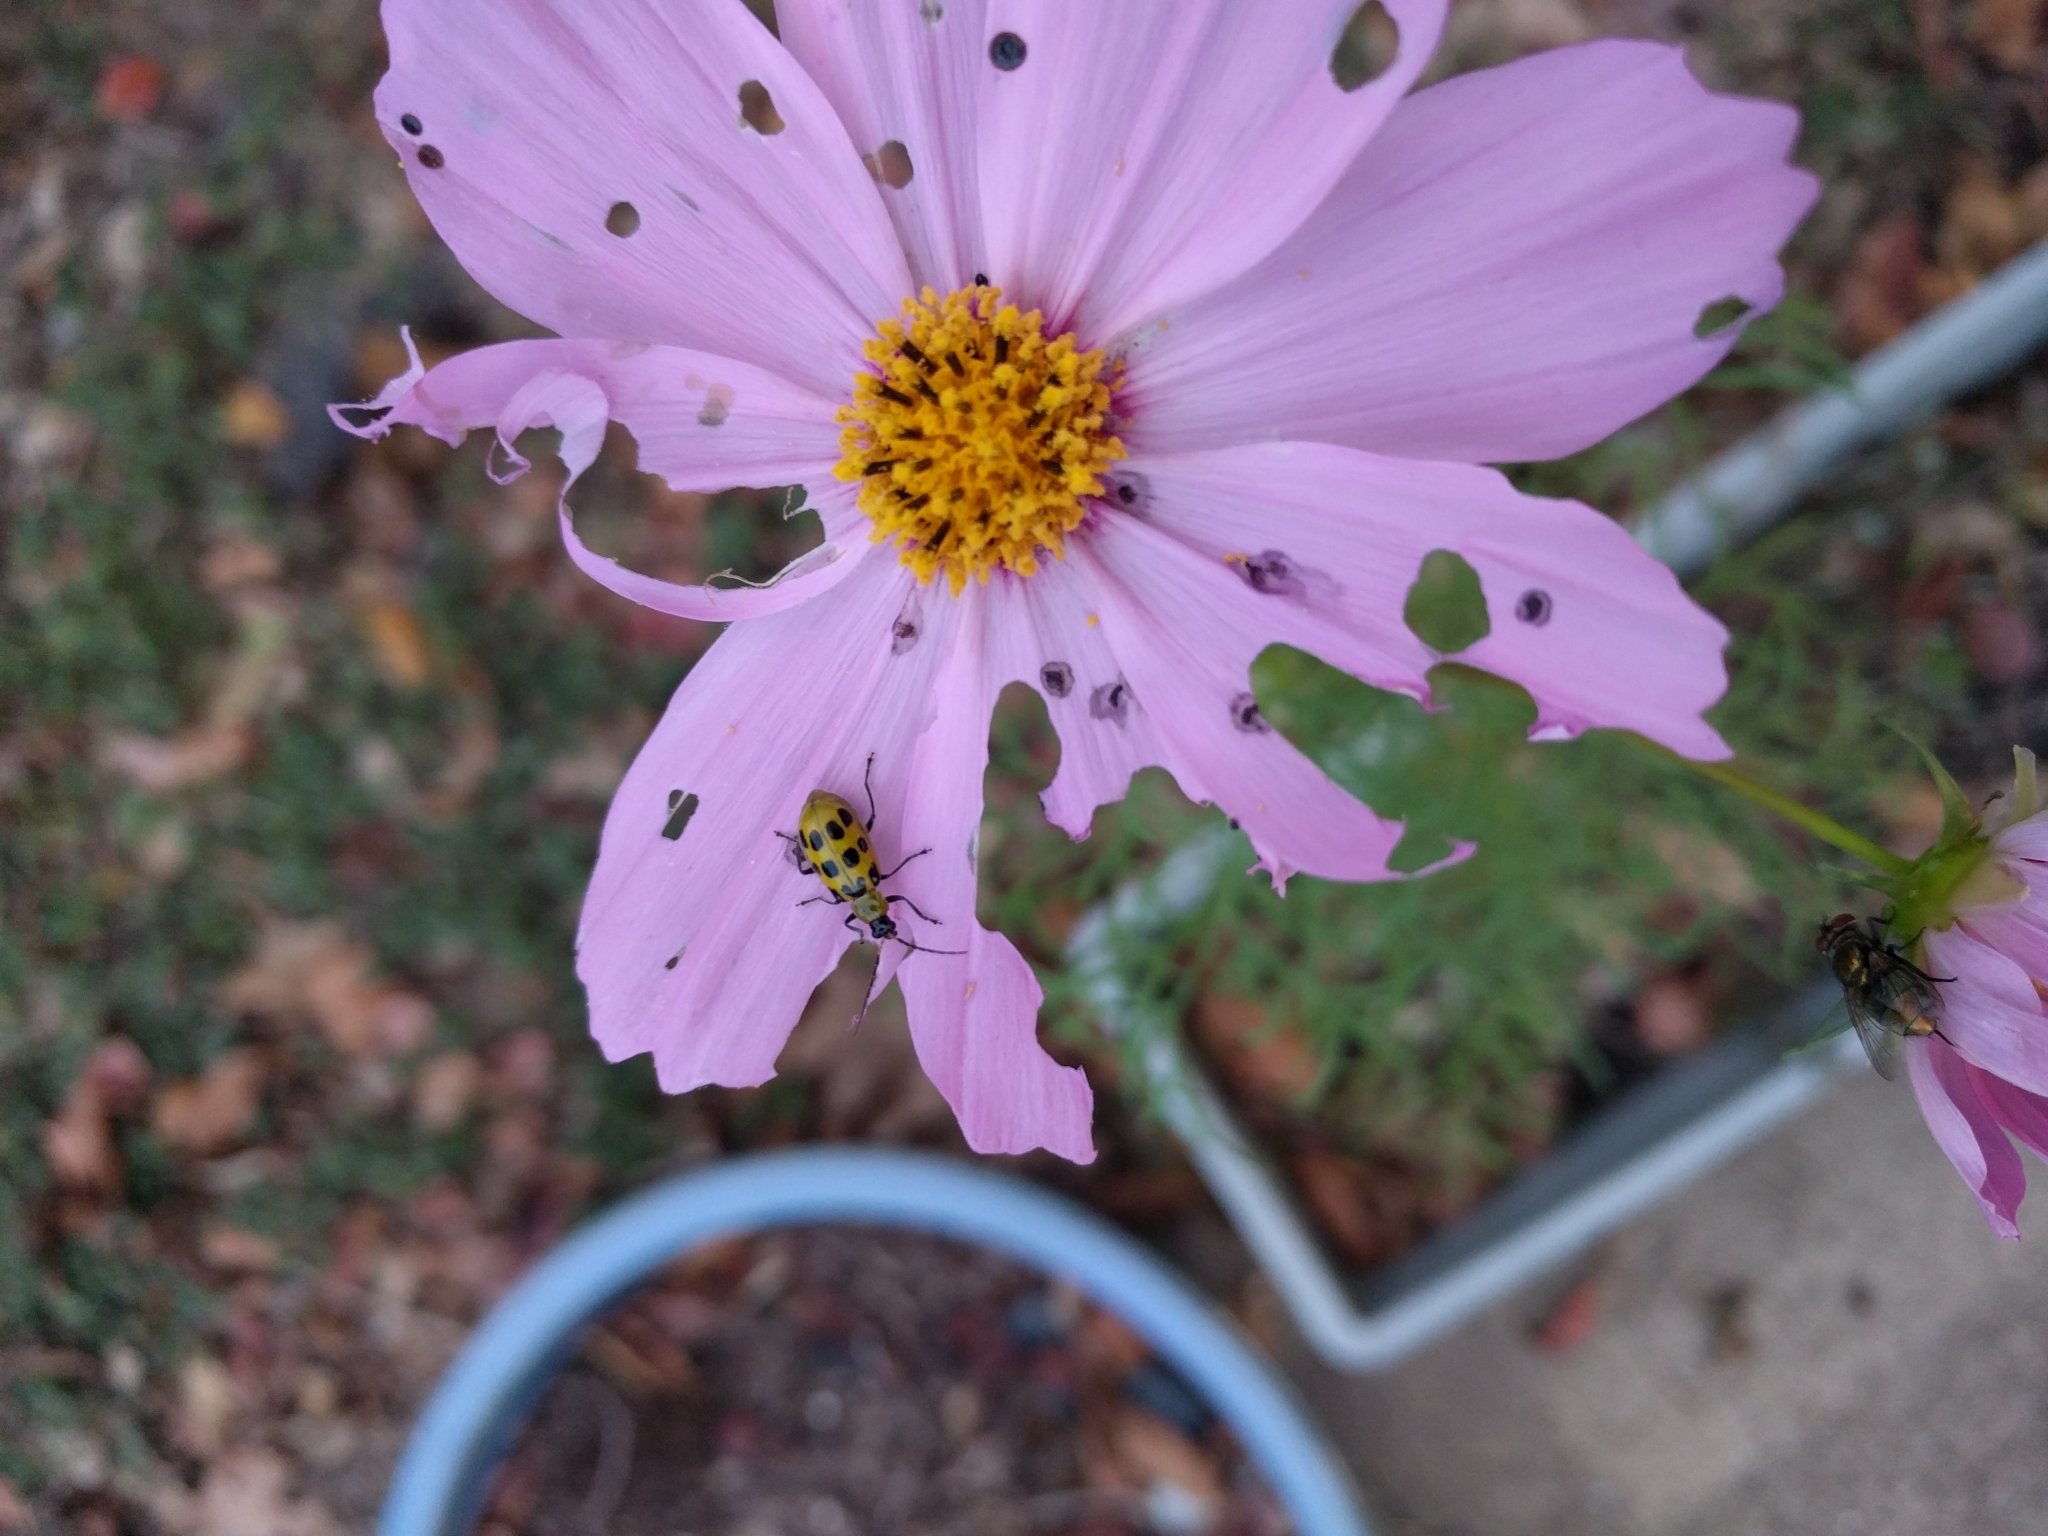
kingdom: Animalia
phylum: Arthropoda
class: Insecta
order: Coleoptera
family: Chrysomelidae
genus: Diabrotica
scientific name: Diabrotica undecimpunctata
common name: Spotted cucumber beetle
